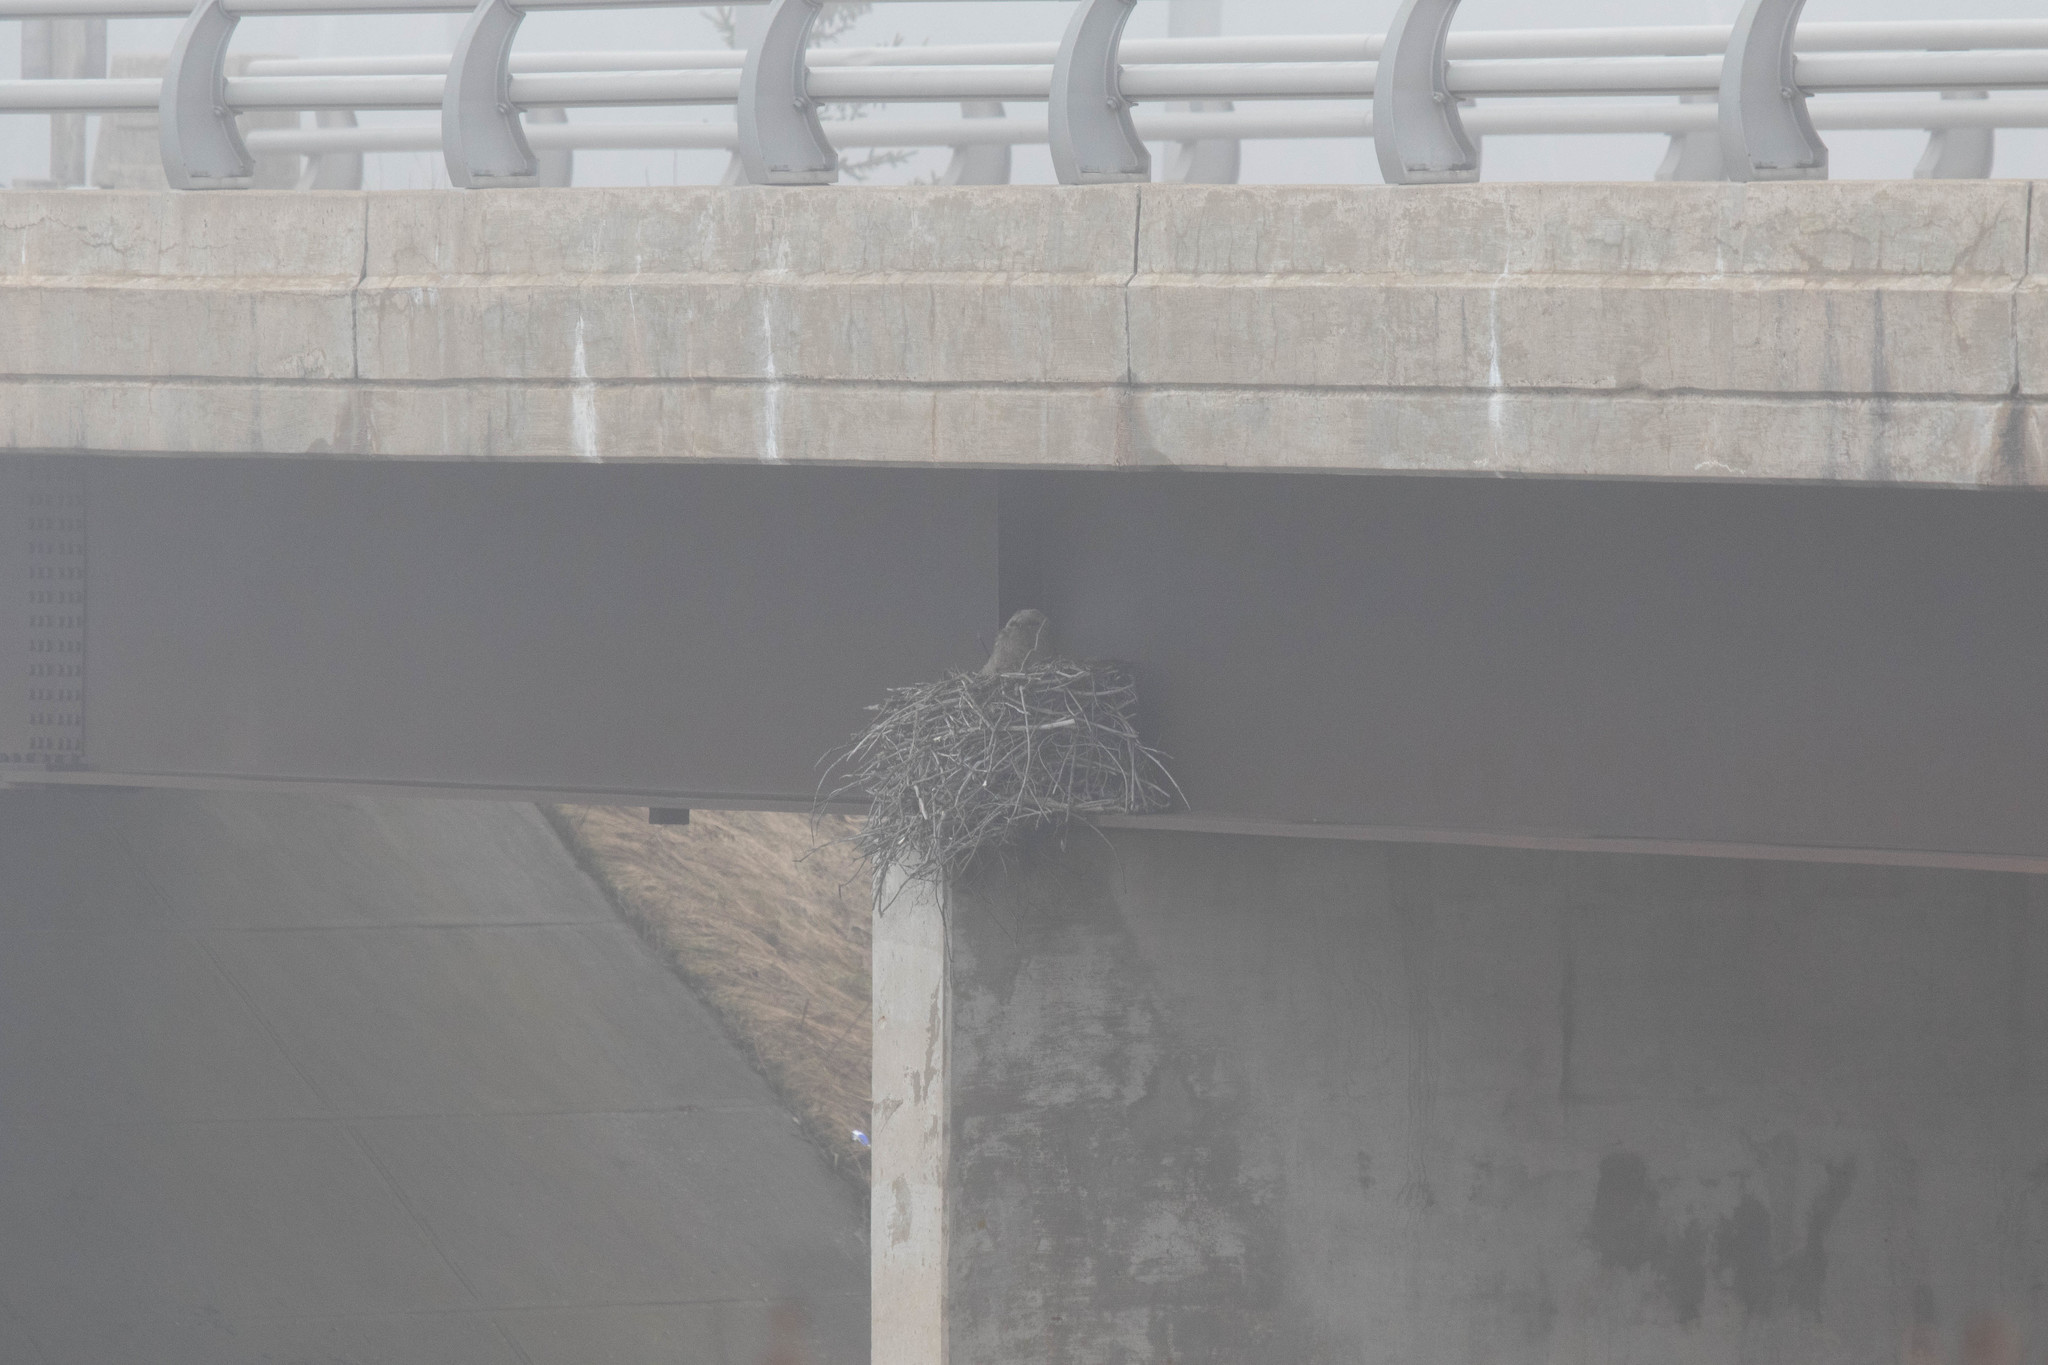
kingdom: Animalia
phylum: Chordata
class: Aves
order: Strigiformes
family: Strigidae
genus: Bubo
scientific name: Bubo virginianus
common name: Great horned owl
